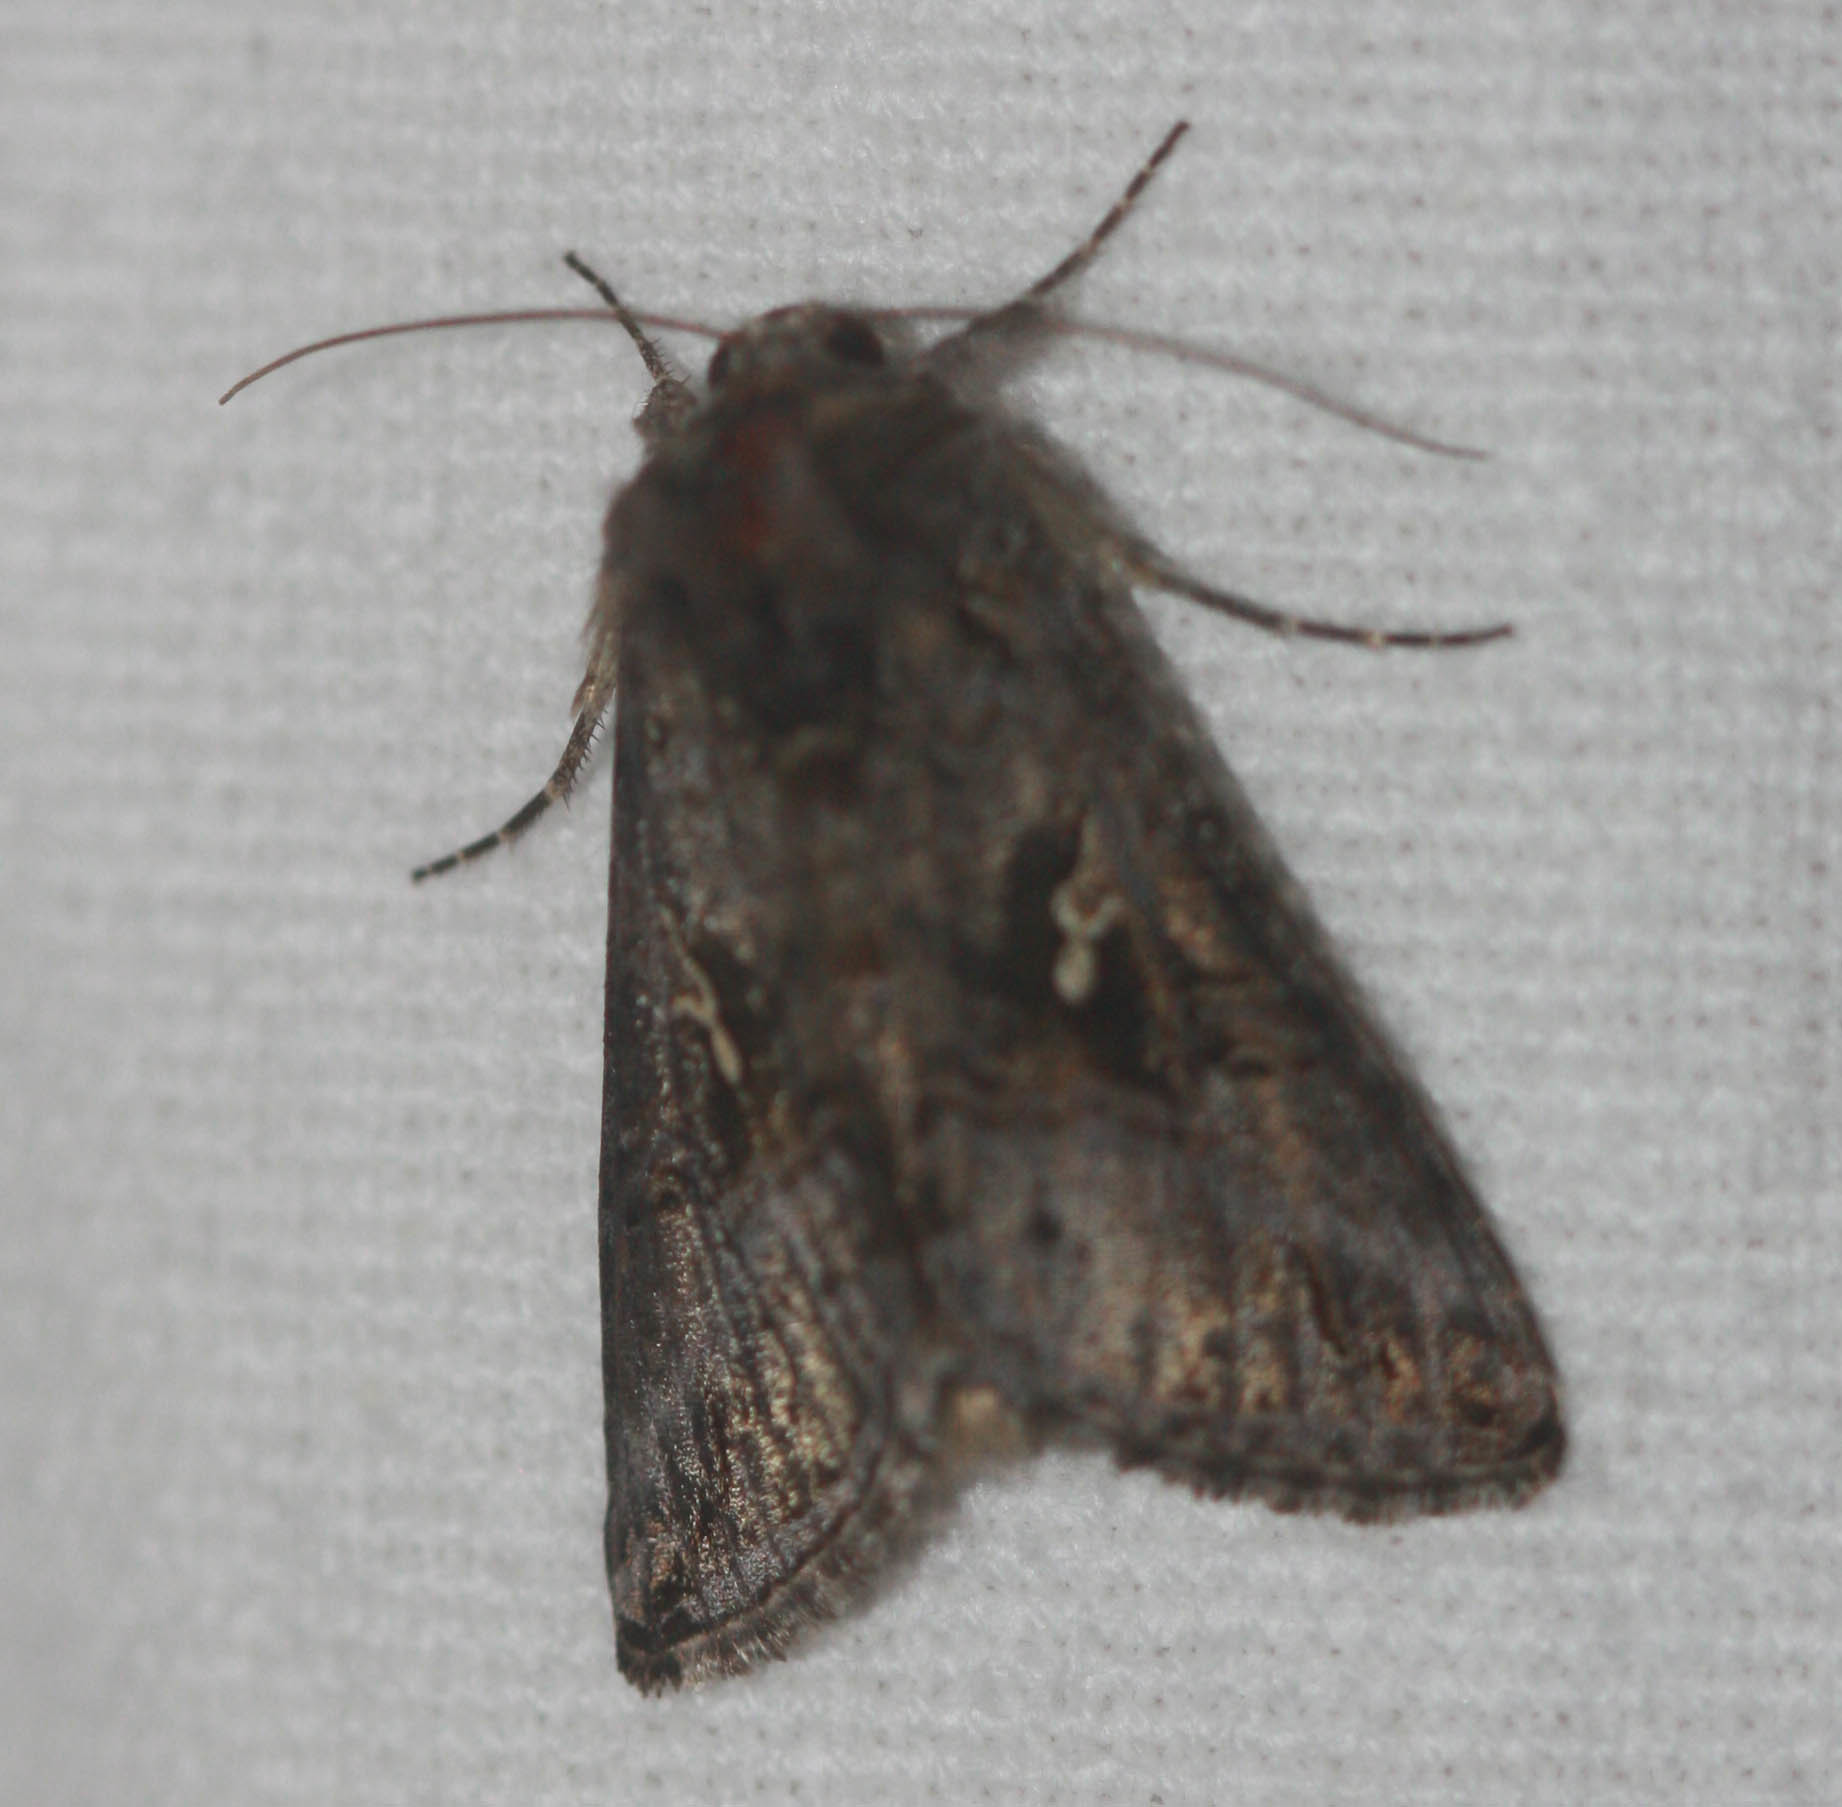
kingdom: Animalia
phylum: Arthropoda
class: Insecta
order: Lepidoptera
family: Noctuidae
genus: Rachiplusia
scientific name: Rachiplusia ou
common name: Gray looper moth
